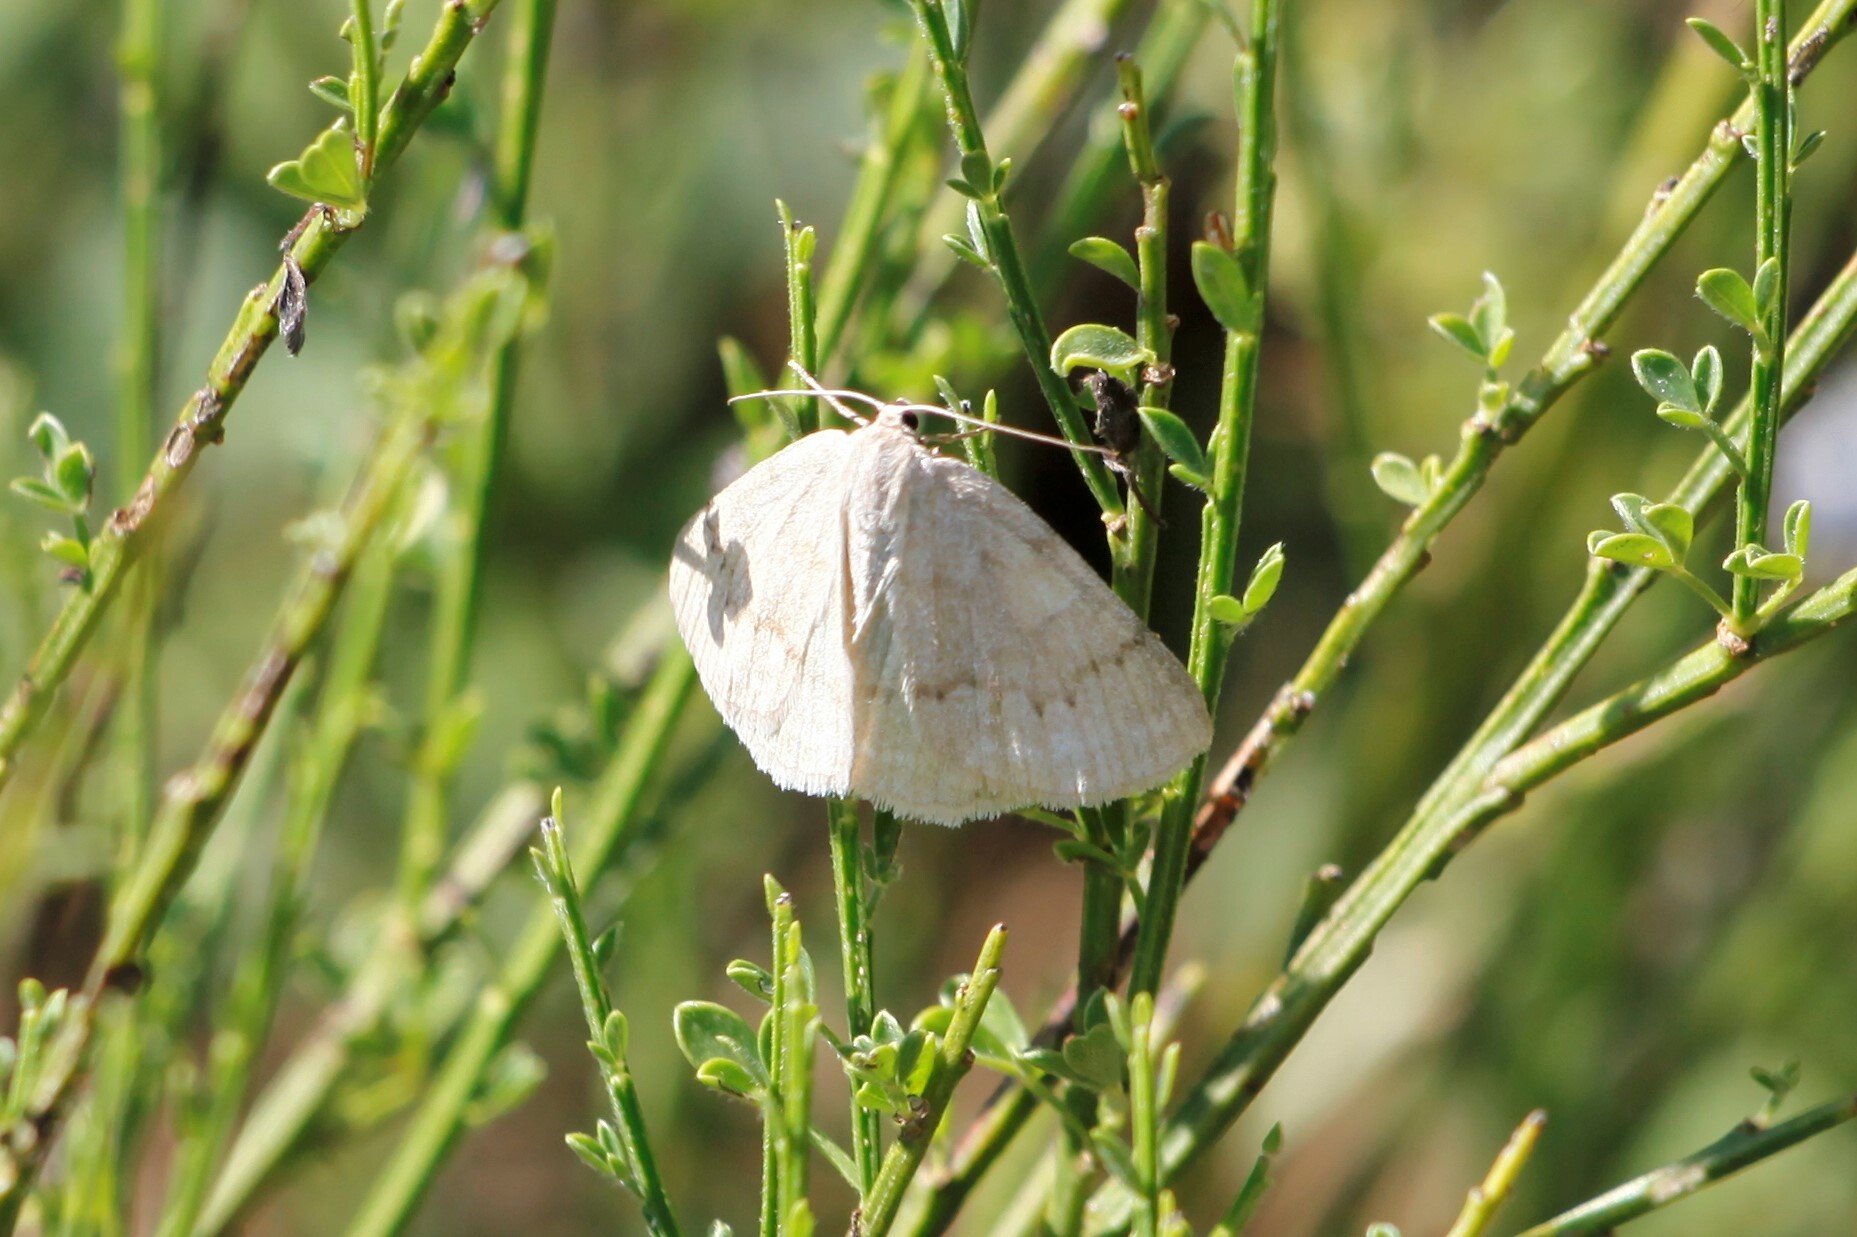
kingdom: Animalia
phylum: Arthropoda
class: Insecta
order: Lepidoptera
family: Geometridae
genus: Pseudoterpna
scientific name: Pseudoterpna pruinata
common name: Grass emerald
